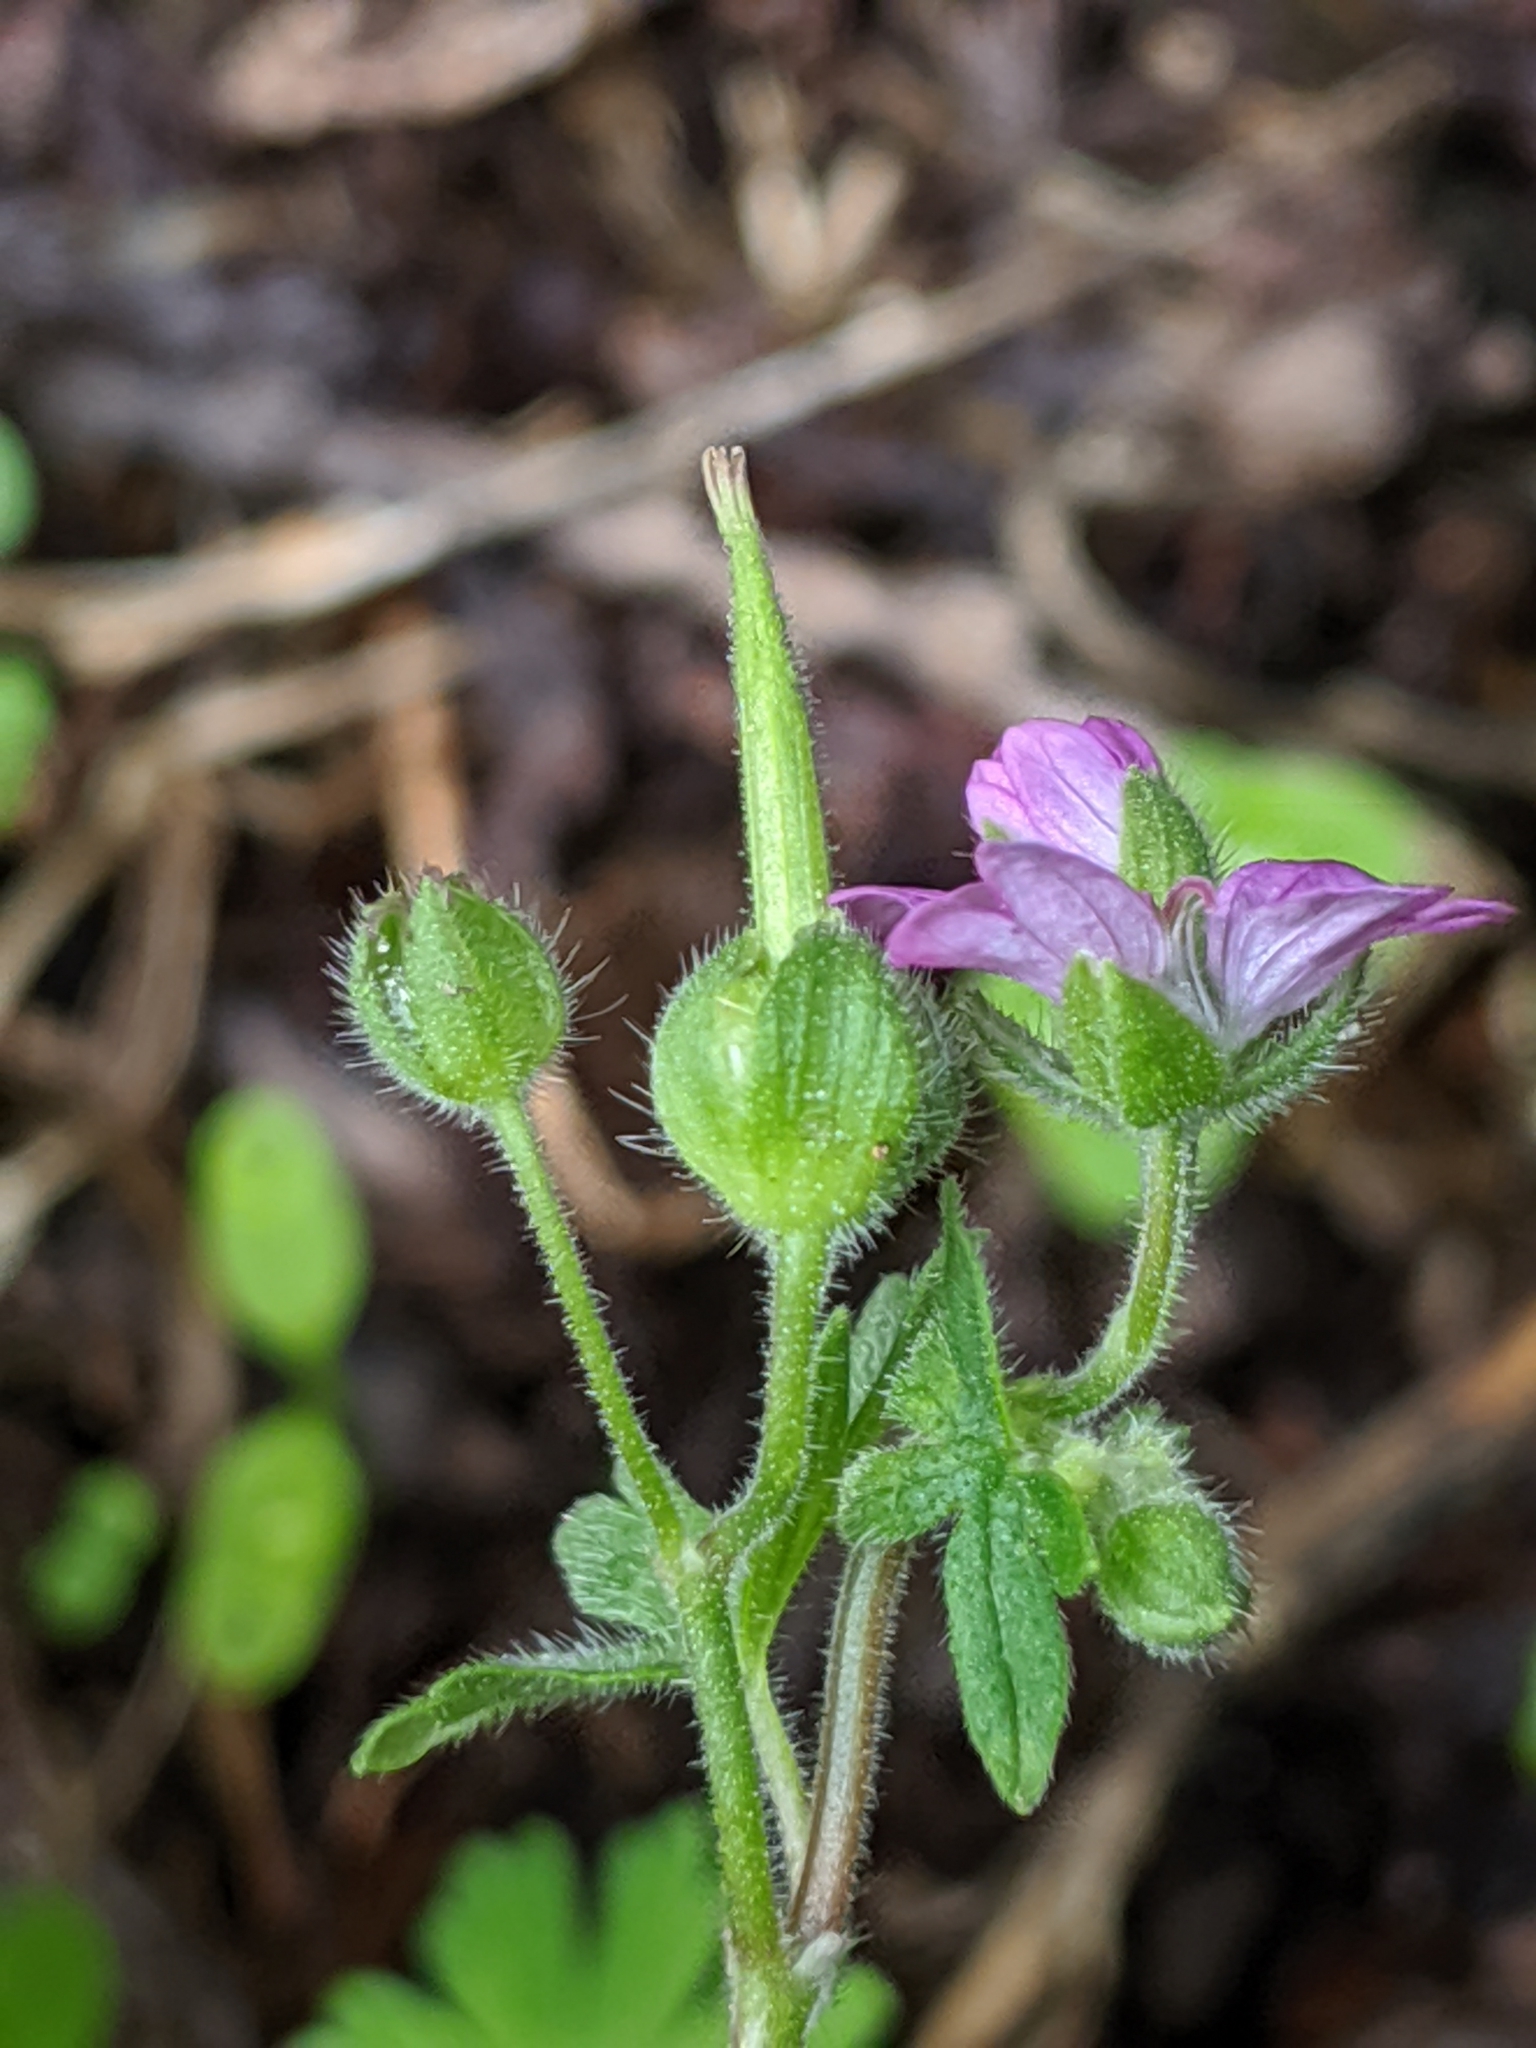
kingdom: Plantae
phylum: Tracheophyta
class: Magnoliopsida
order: Geraniales
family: Geraniaceae
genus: Geranium
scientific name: Geranium molle
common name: Dove's-foot crane's-bill
